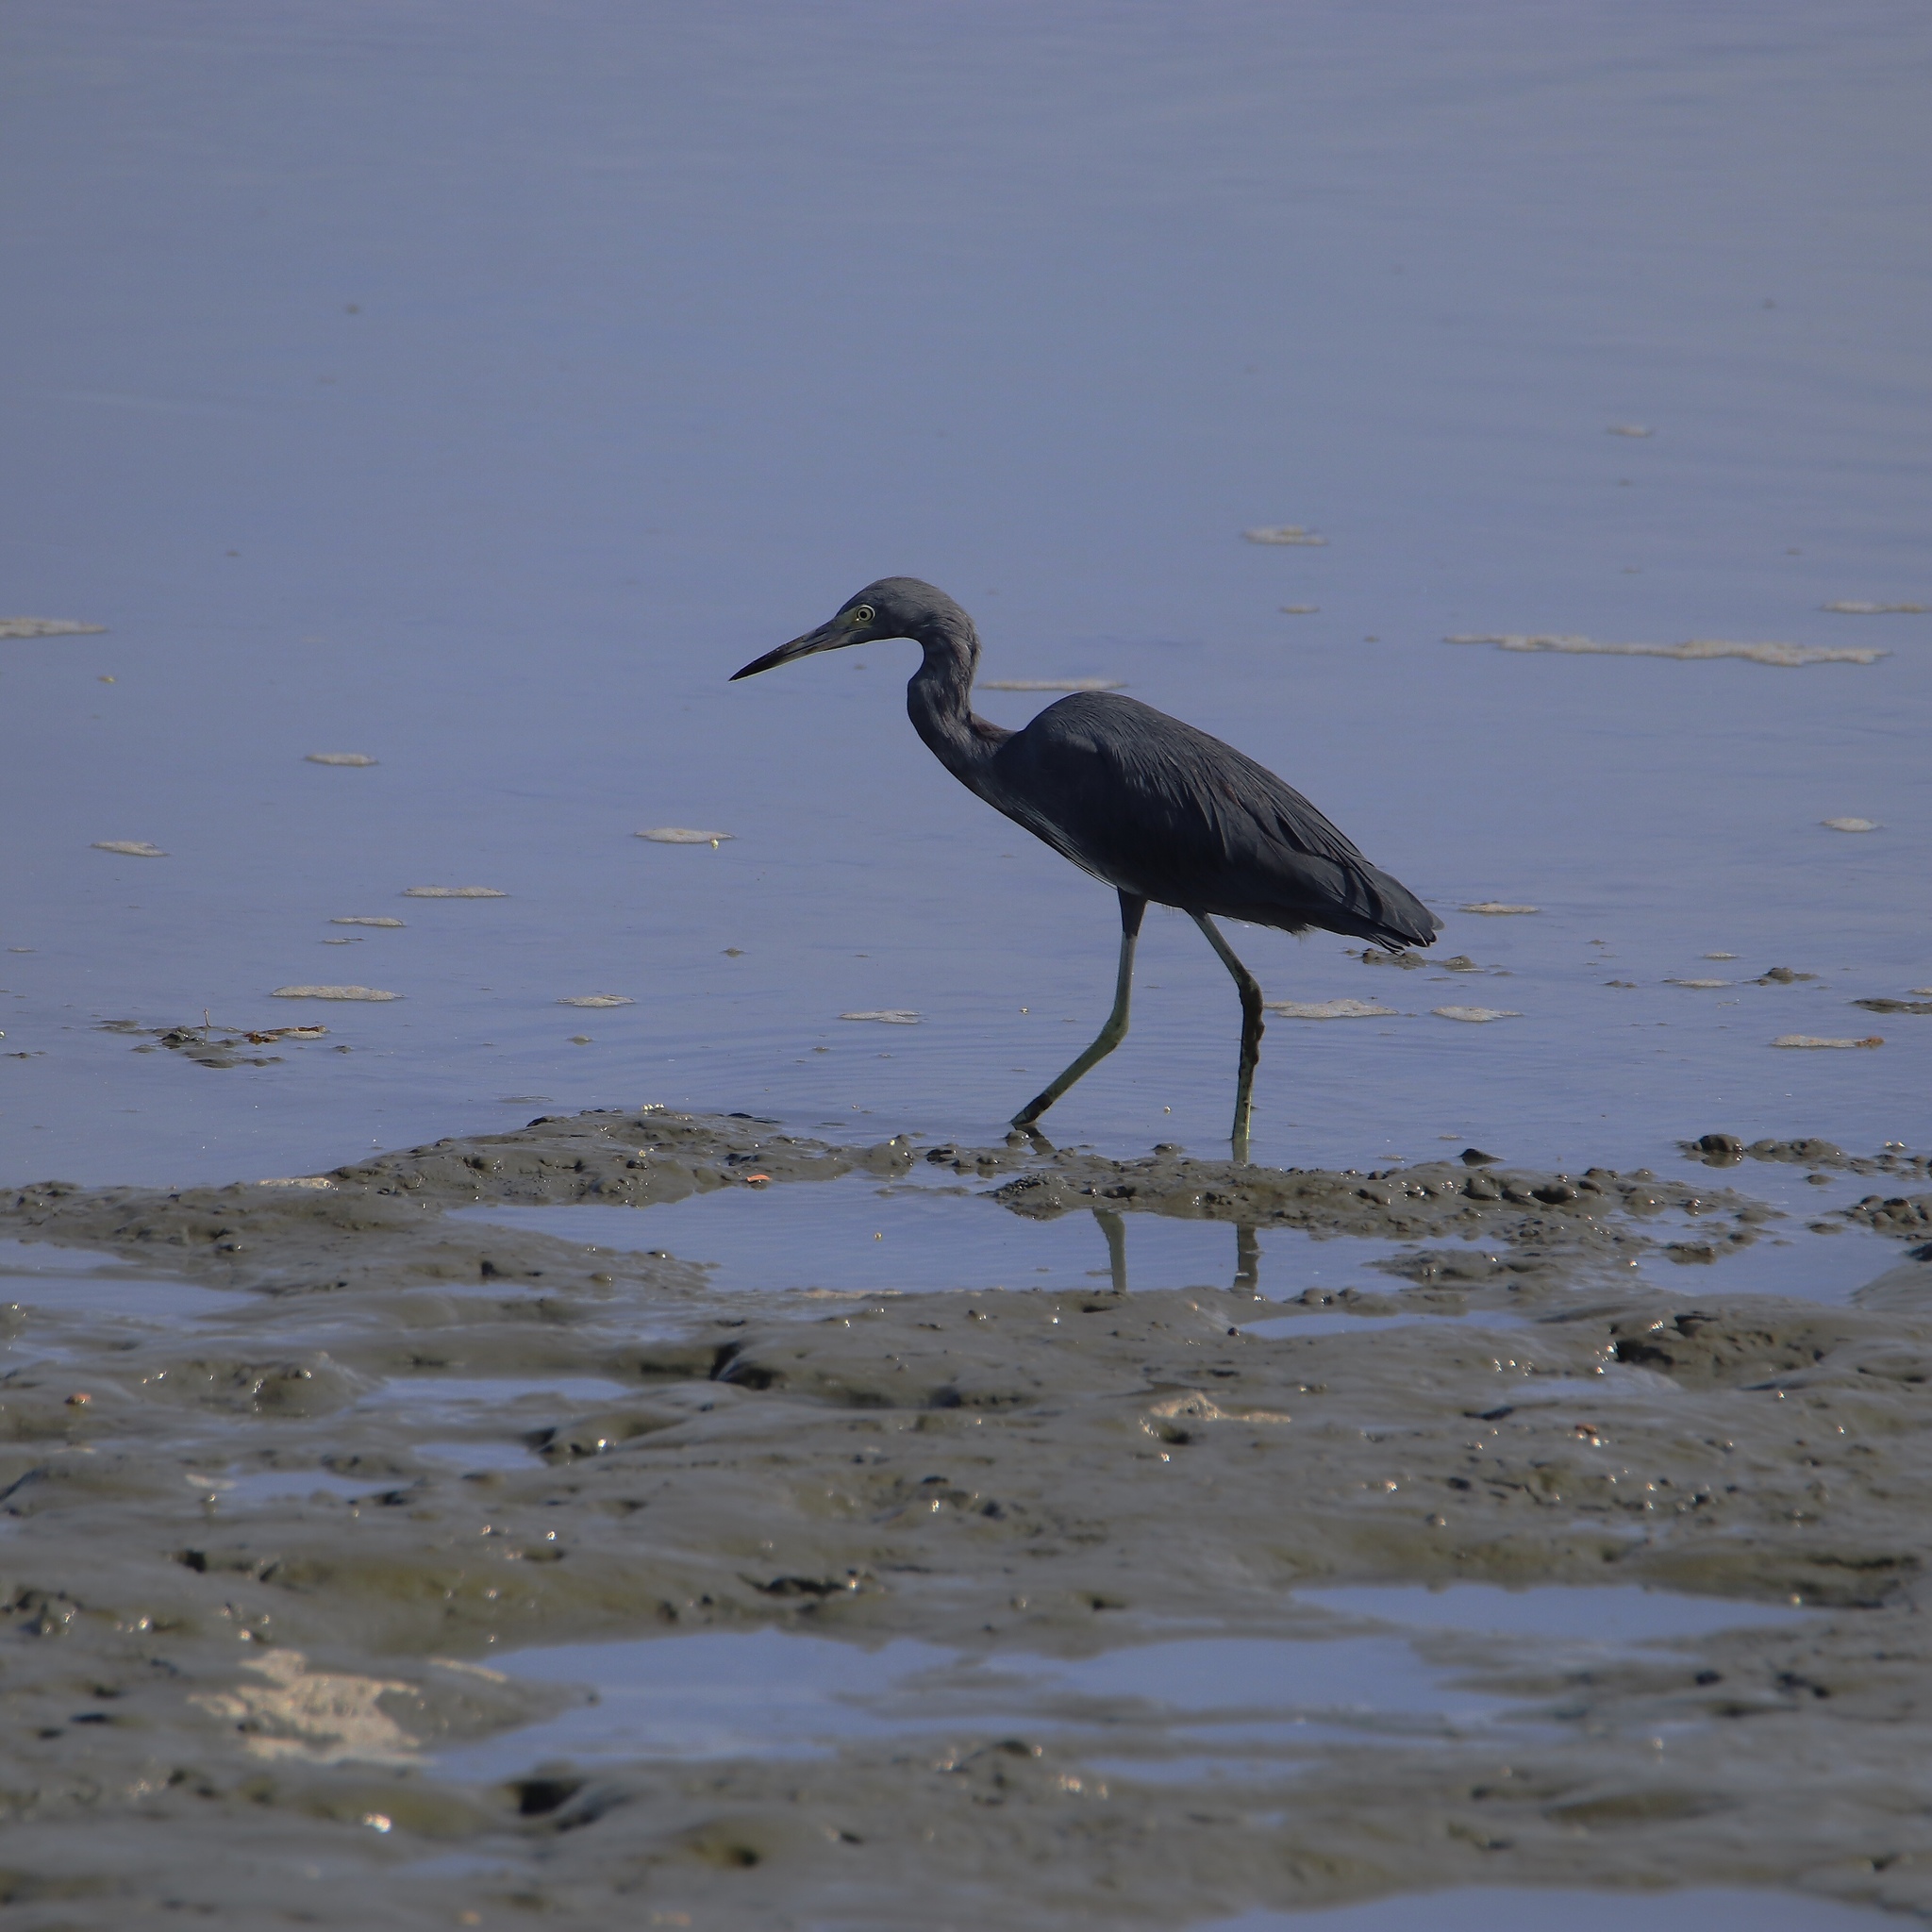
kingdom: Animalia
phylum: Chordata
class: Aves
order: Pelecaniformes
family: Ardeidae
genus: Egretta
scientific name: Egretta caerulea
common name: Little blue heron
